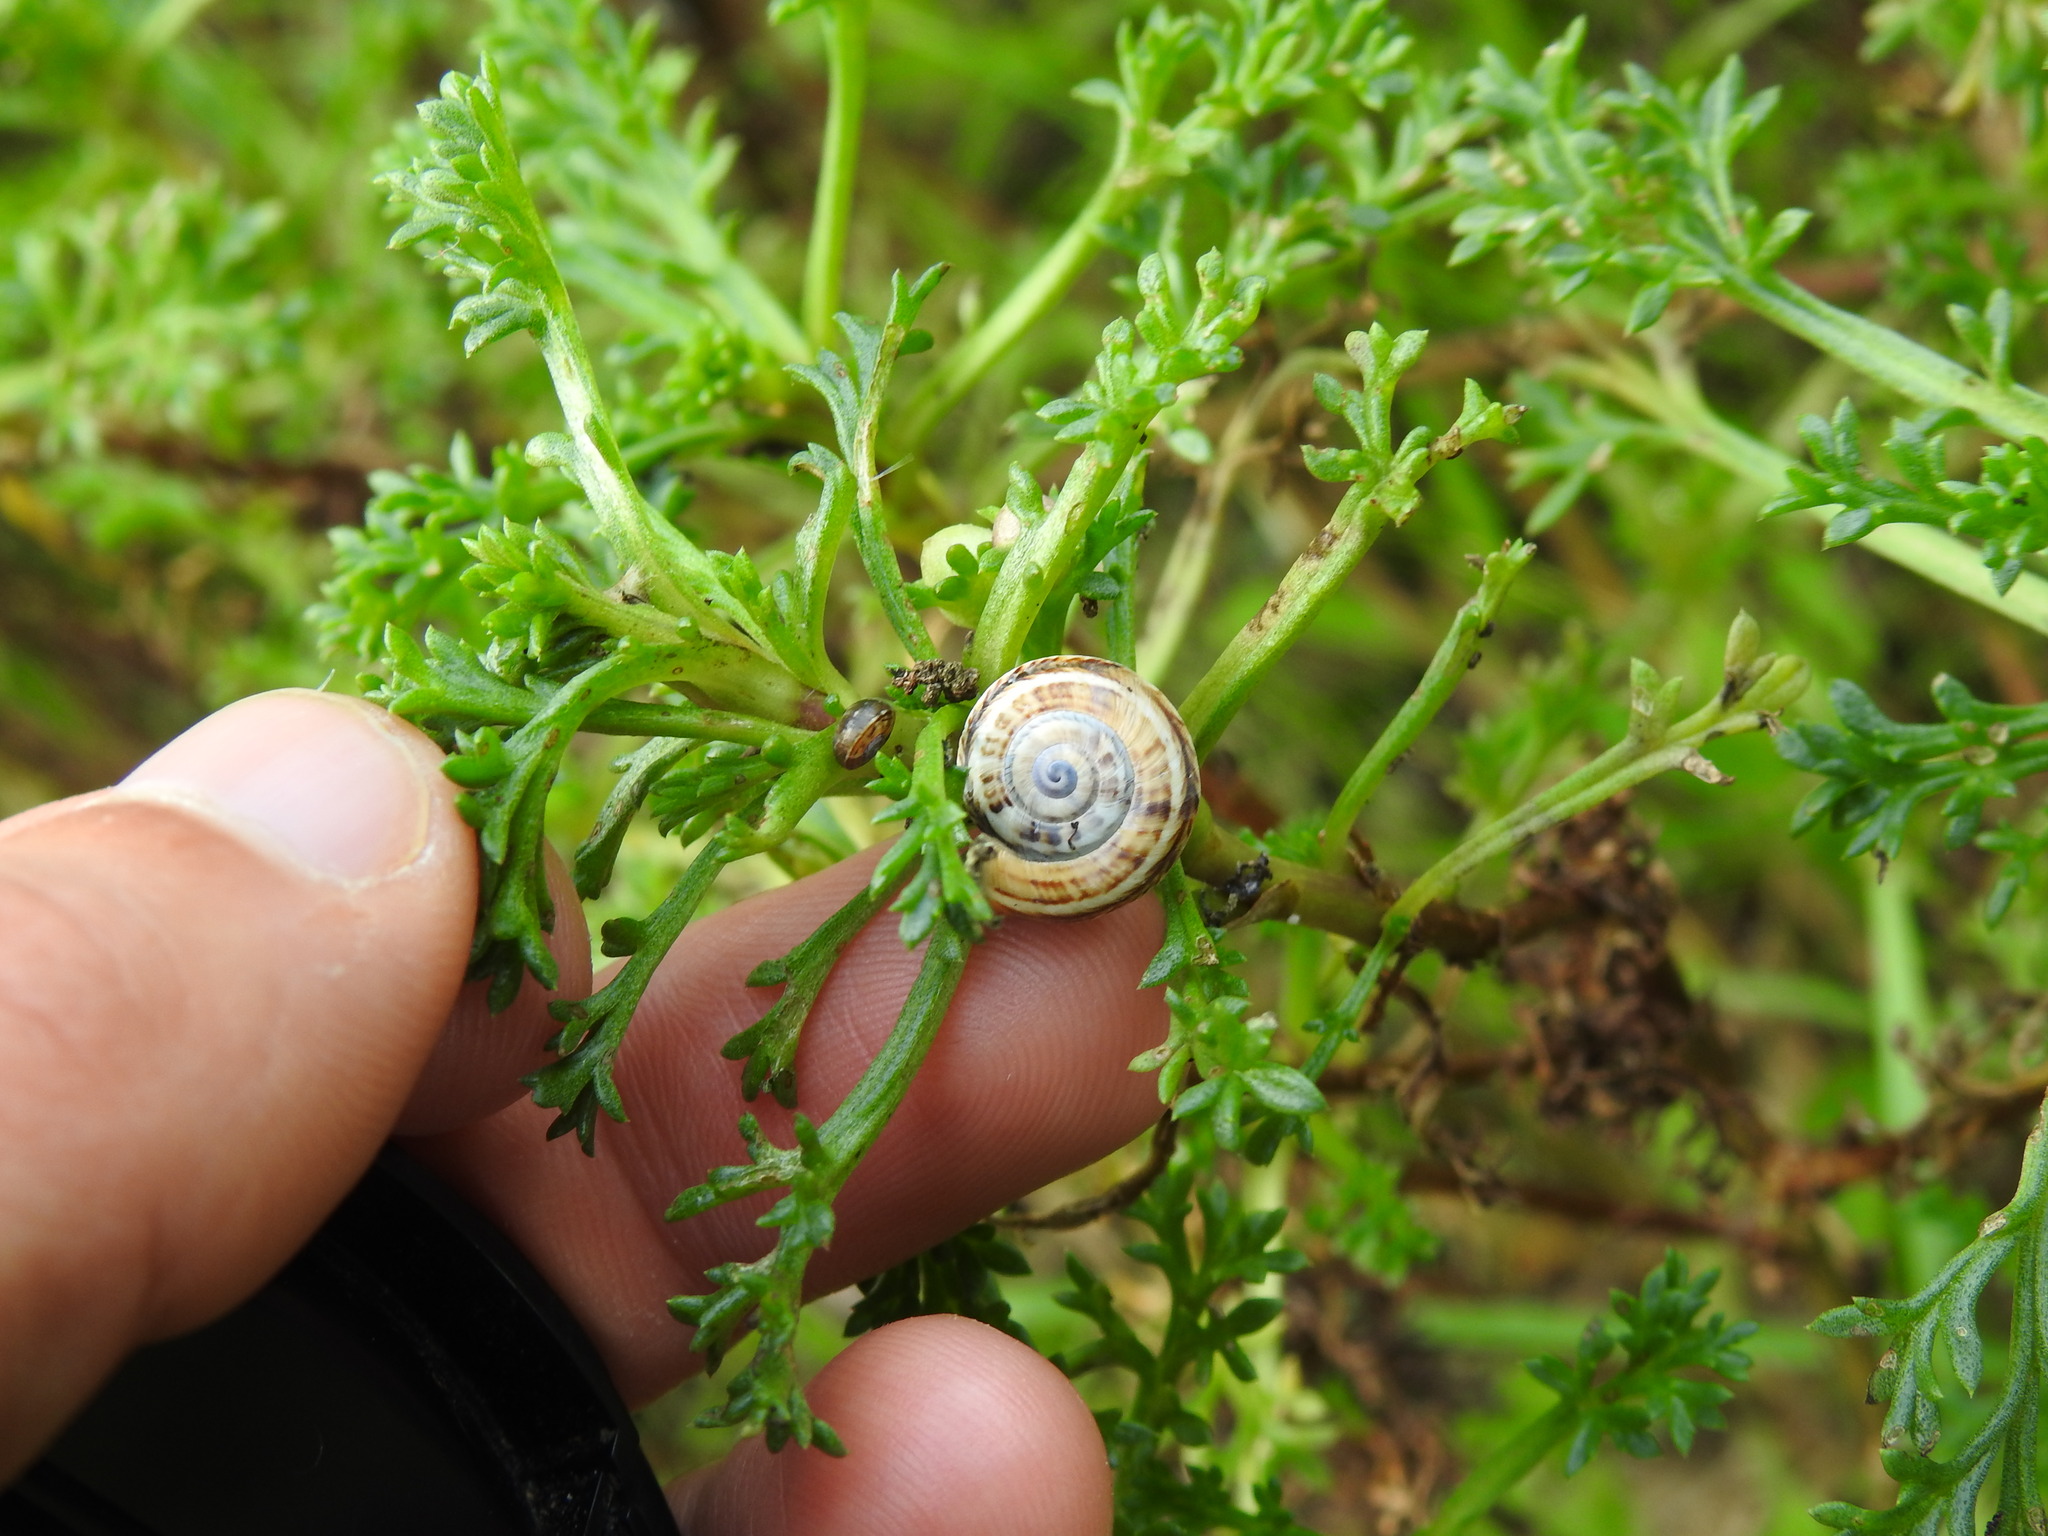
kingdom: Animalia
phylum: Mollusca
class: Gastropoda
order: Stylommatophora
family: Helicidae
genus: Theba
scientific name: Theba pisana
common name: White snail
